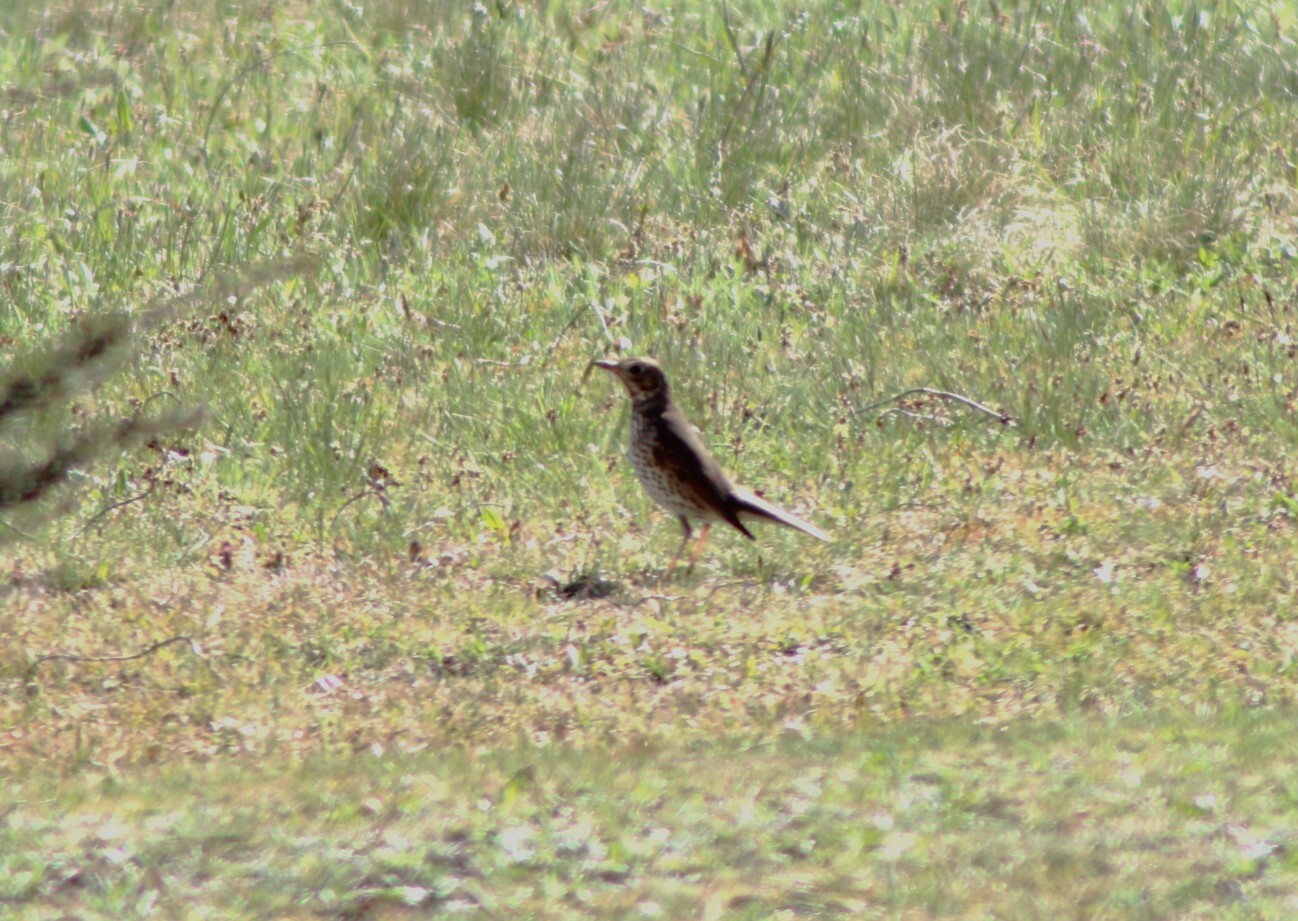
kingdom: Animalia
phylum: Chordata
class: Aves
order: Passeriformes
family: Turdidae
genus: Turdus
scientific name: Turdus philomelos
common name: Song thrush
